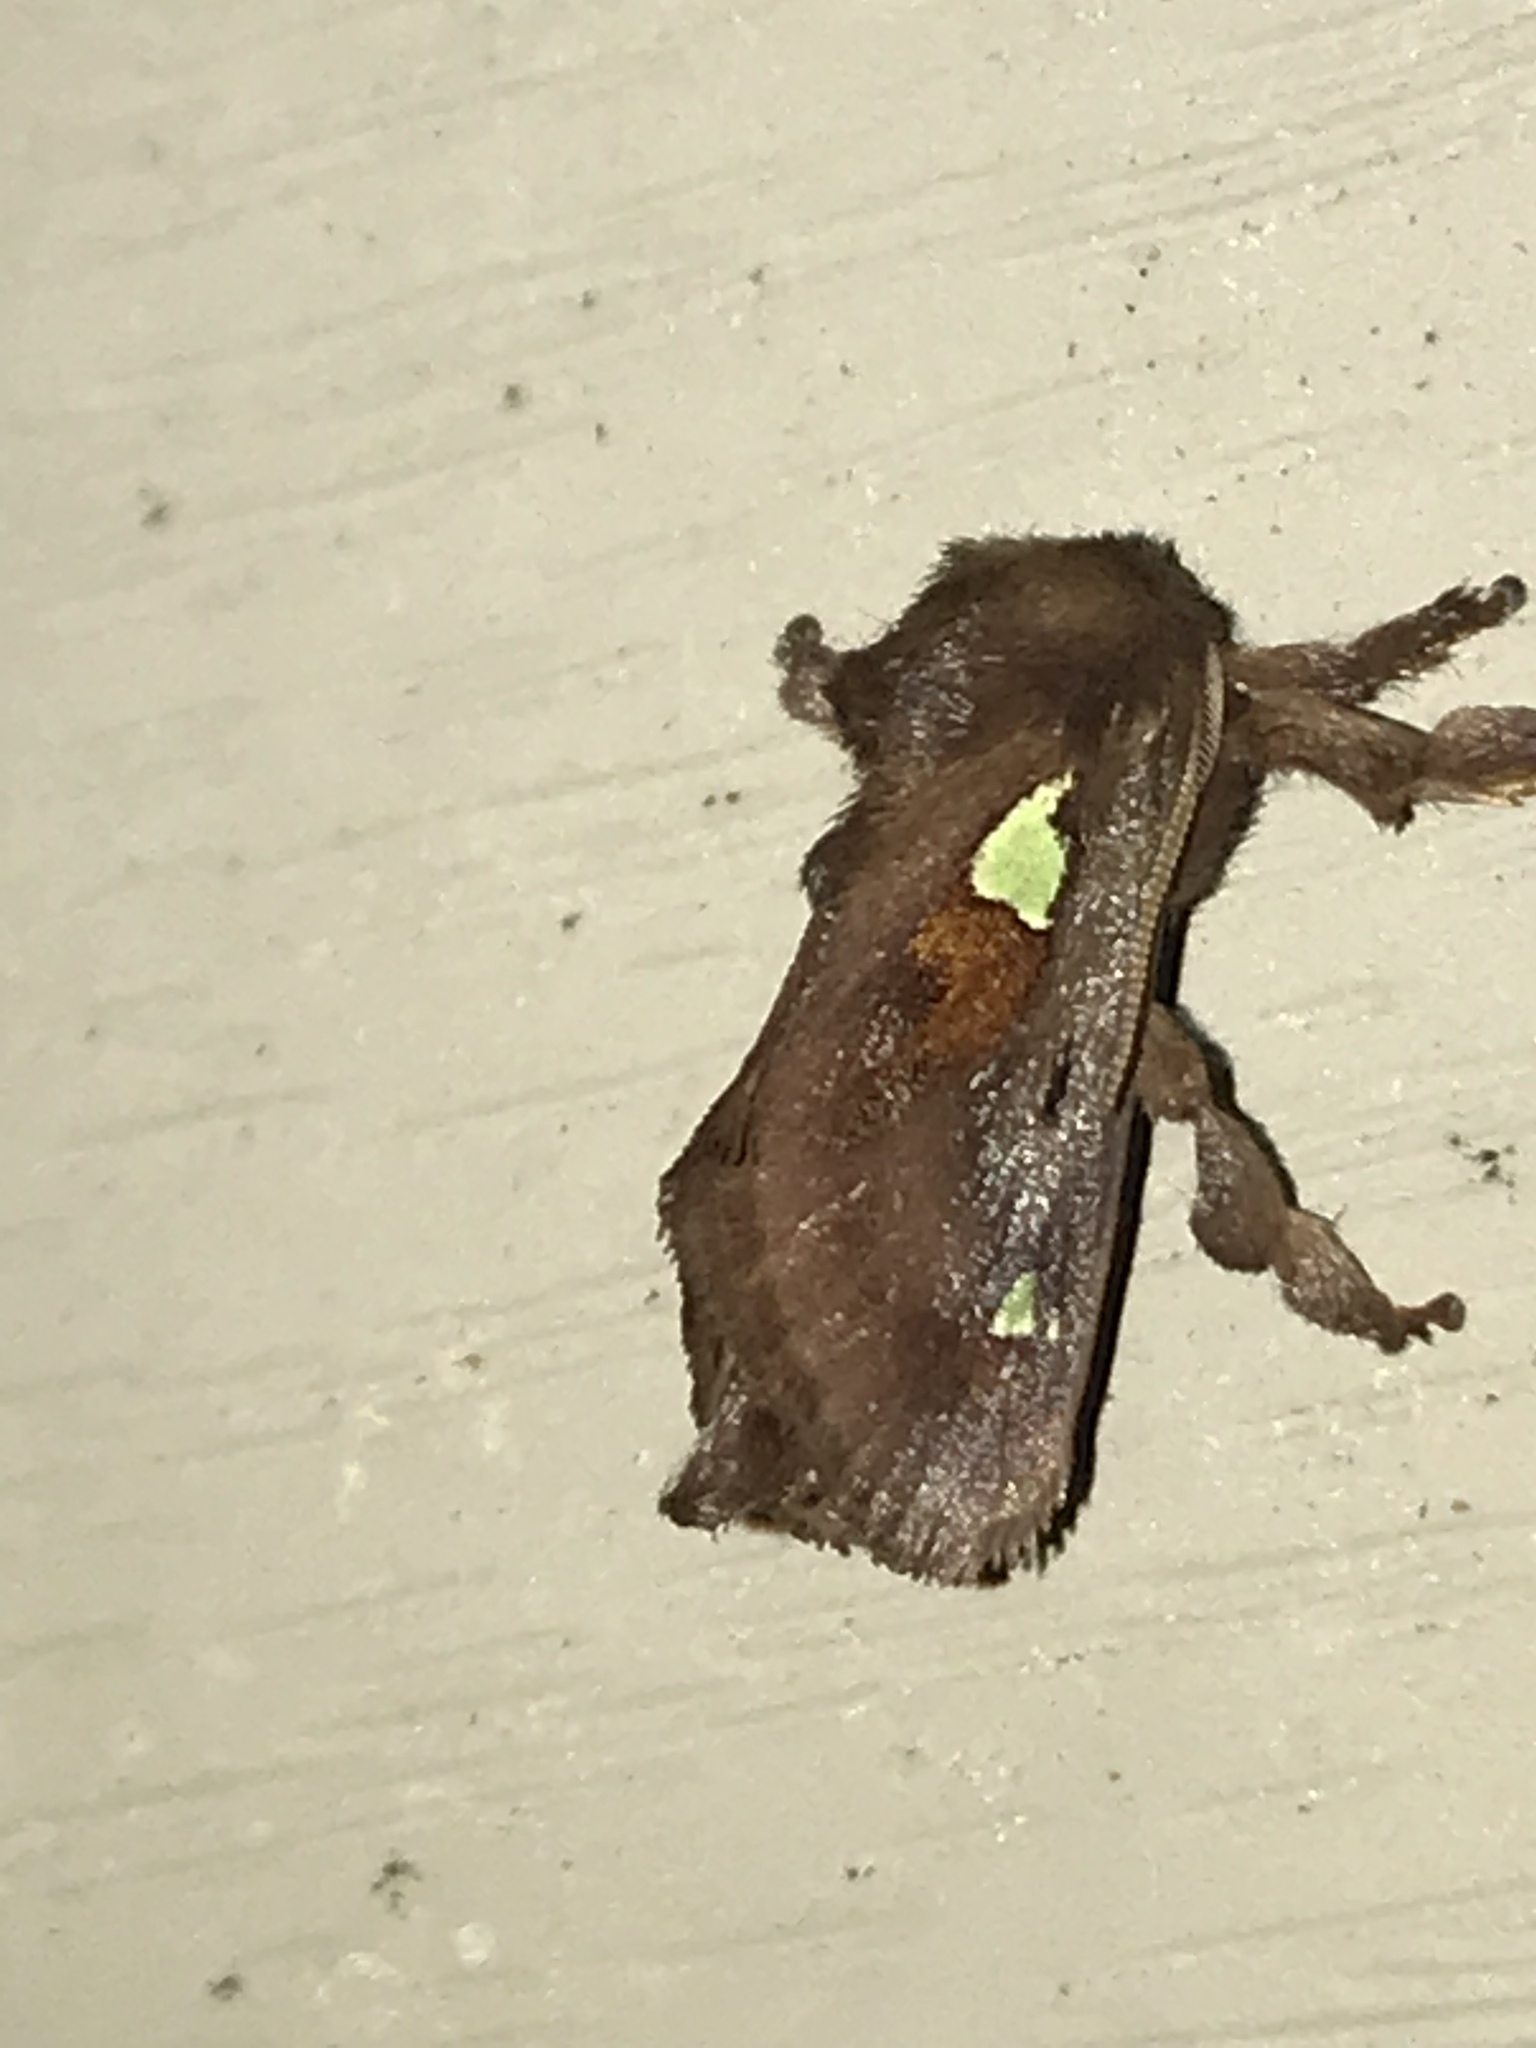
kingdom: Animalia
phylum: Arthropoda
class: Insecta
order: Lepidoptera
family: Limacodidae
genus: Euclea
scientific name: Euclea delphinii
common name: Spiny oak-slug moth
